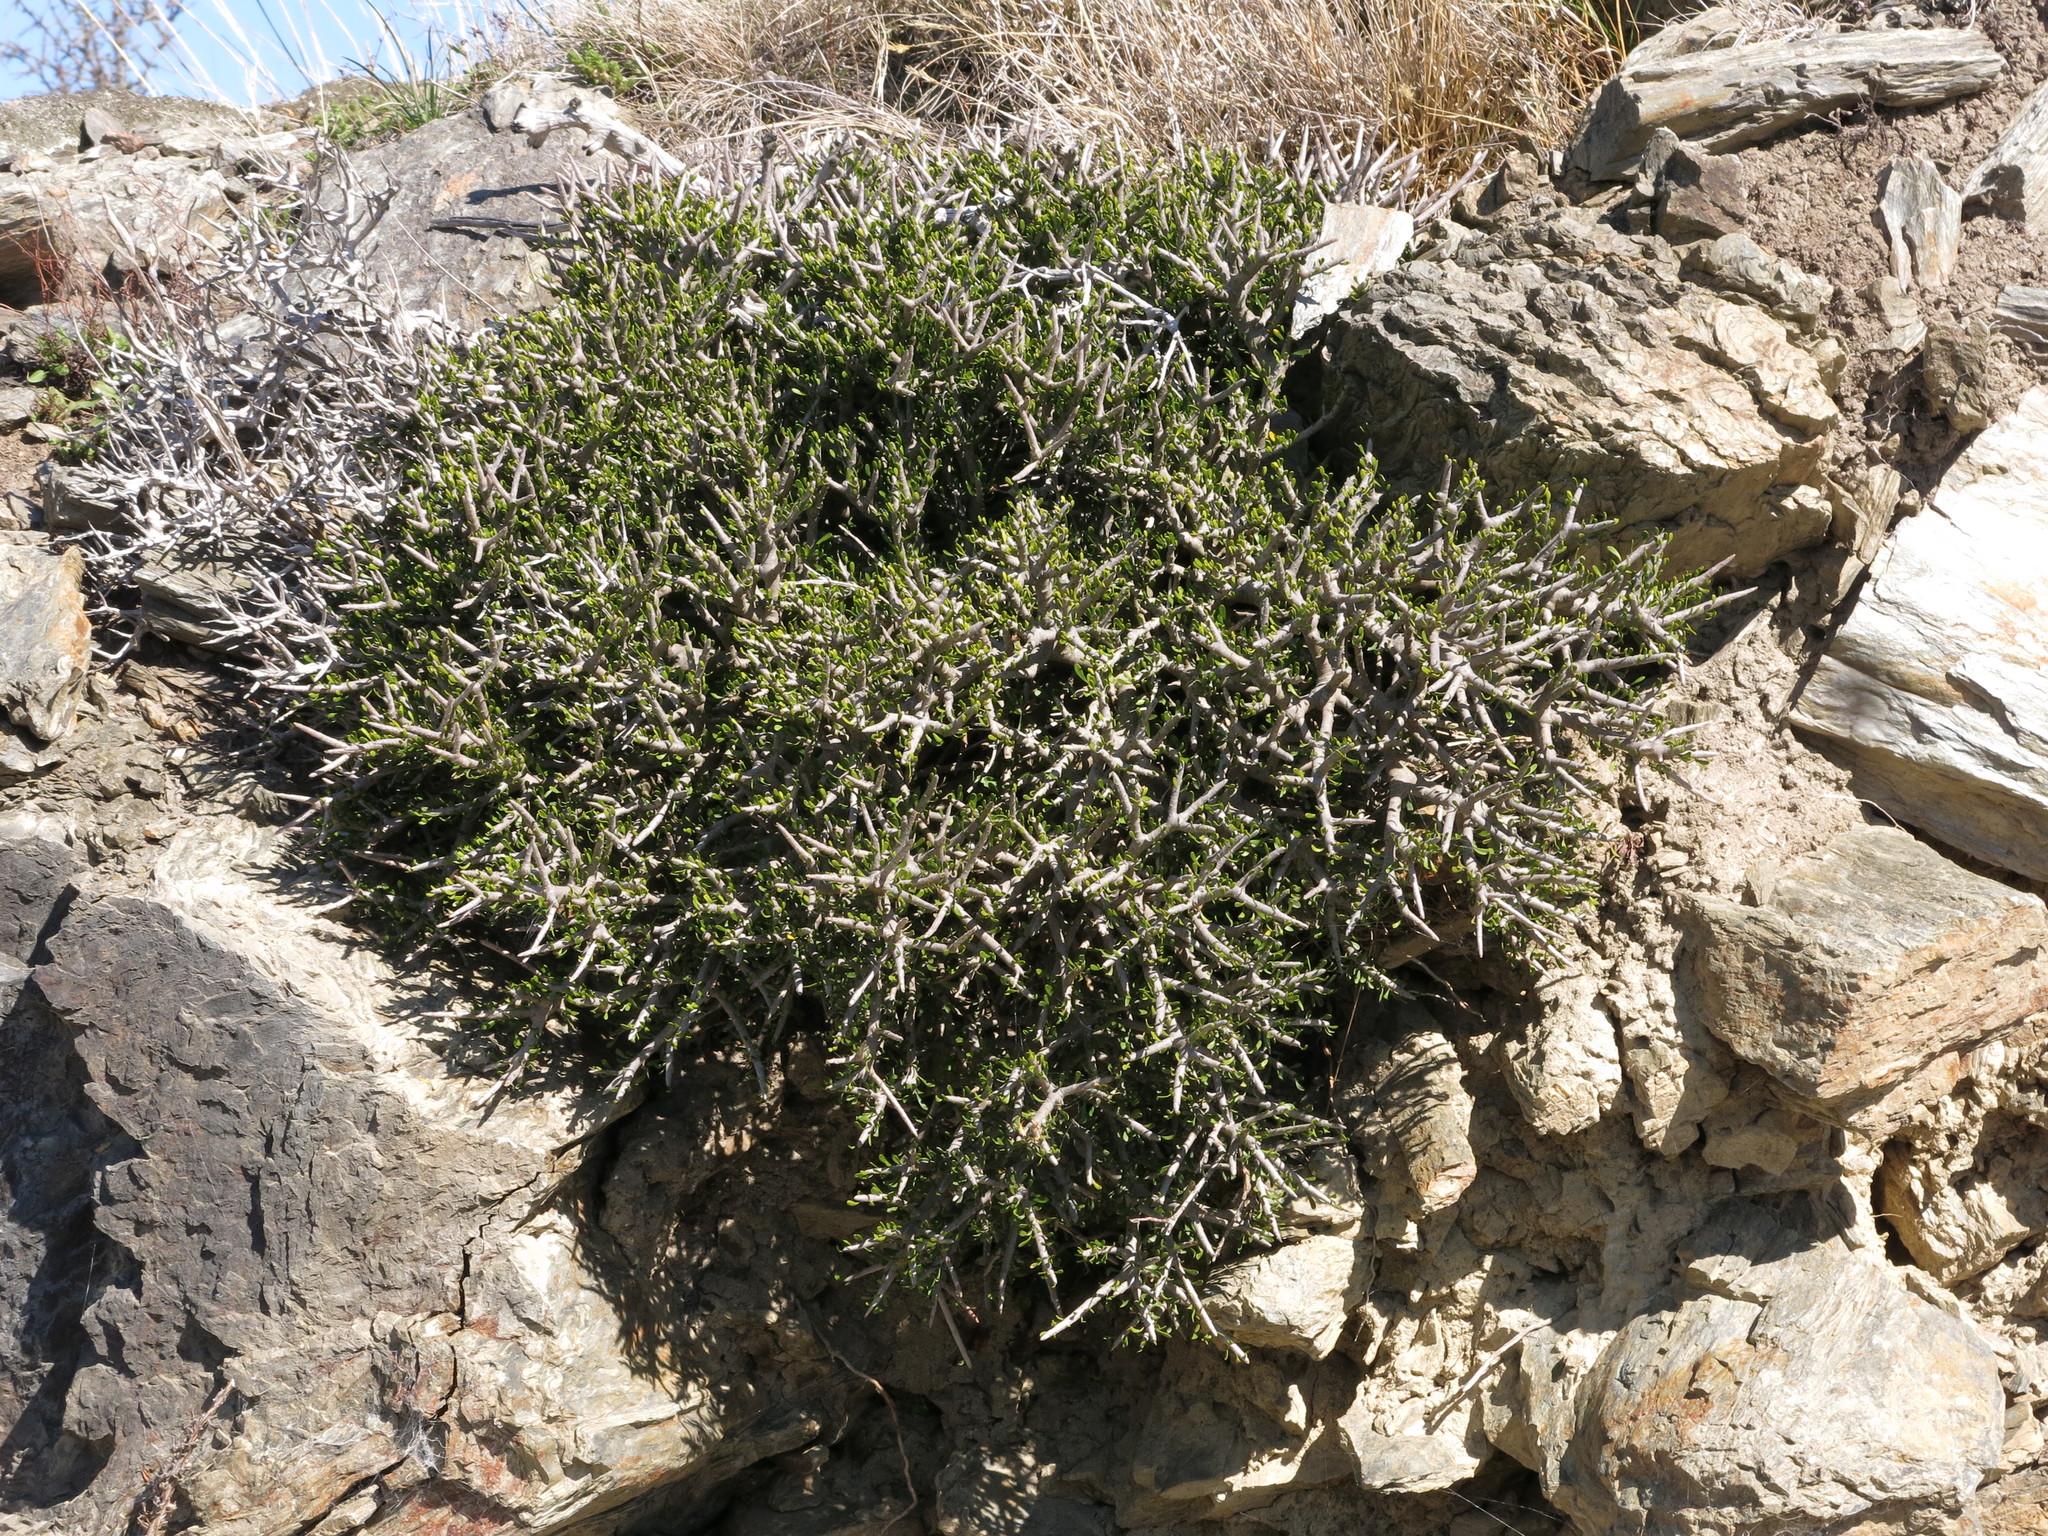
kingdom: Plantae
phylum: Tracheophyta
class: Magnoliopsida
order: Malpighiales
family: Violaceae
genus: Melicytus
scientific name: Melicytus alpinus
